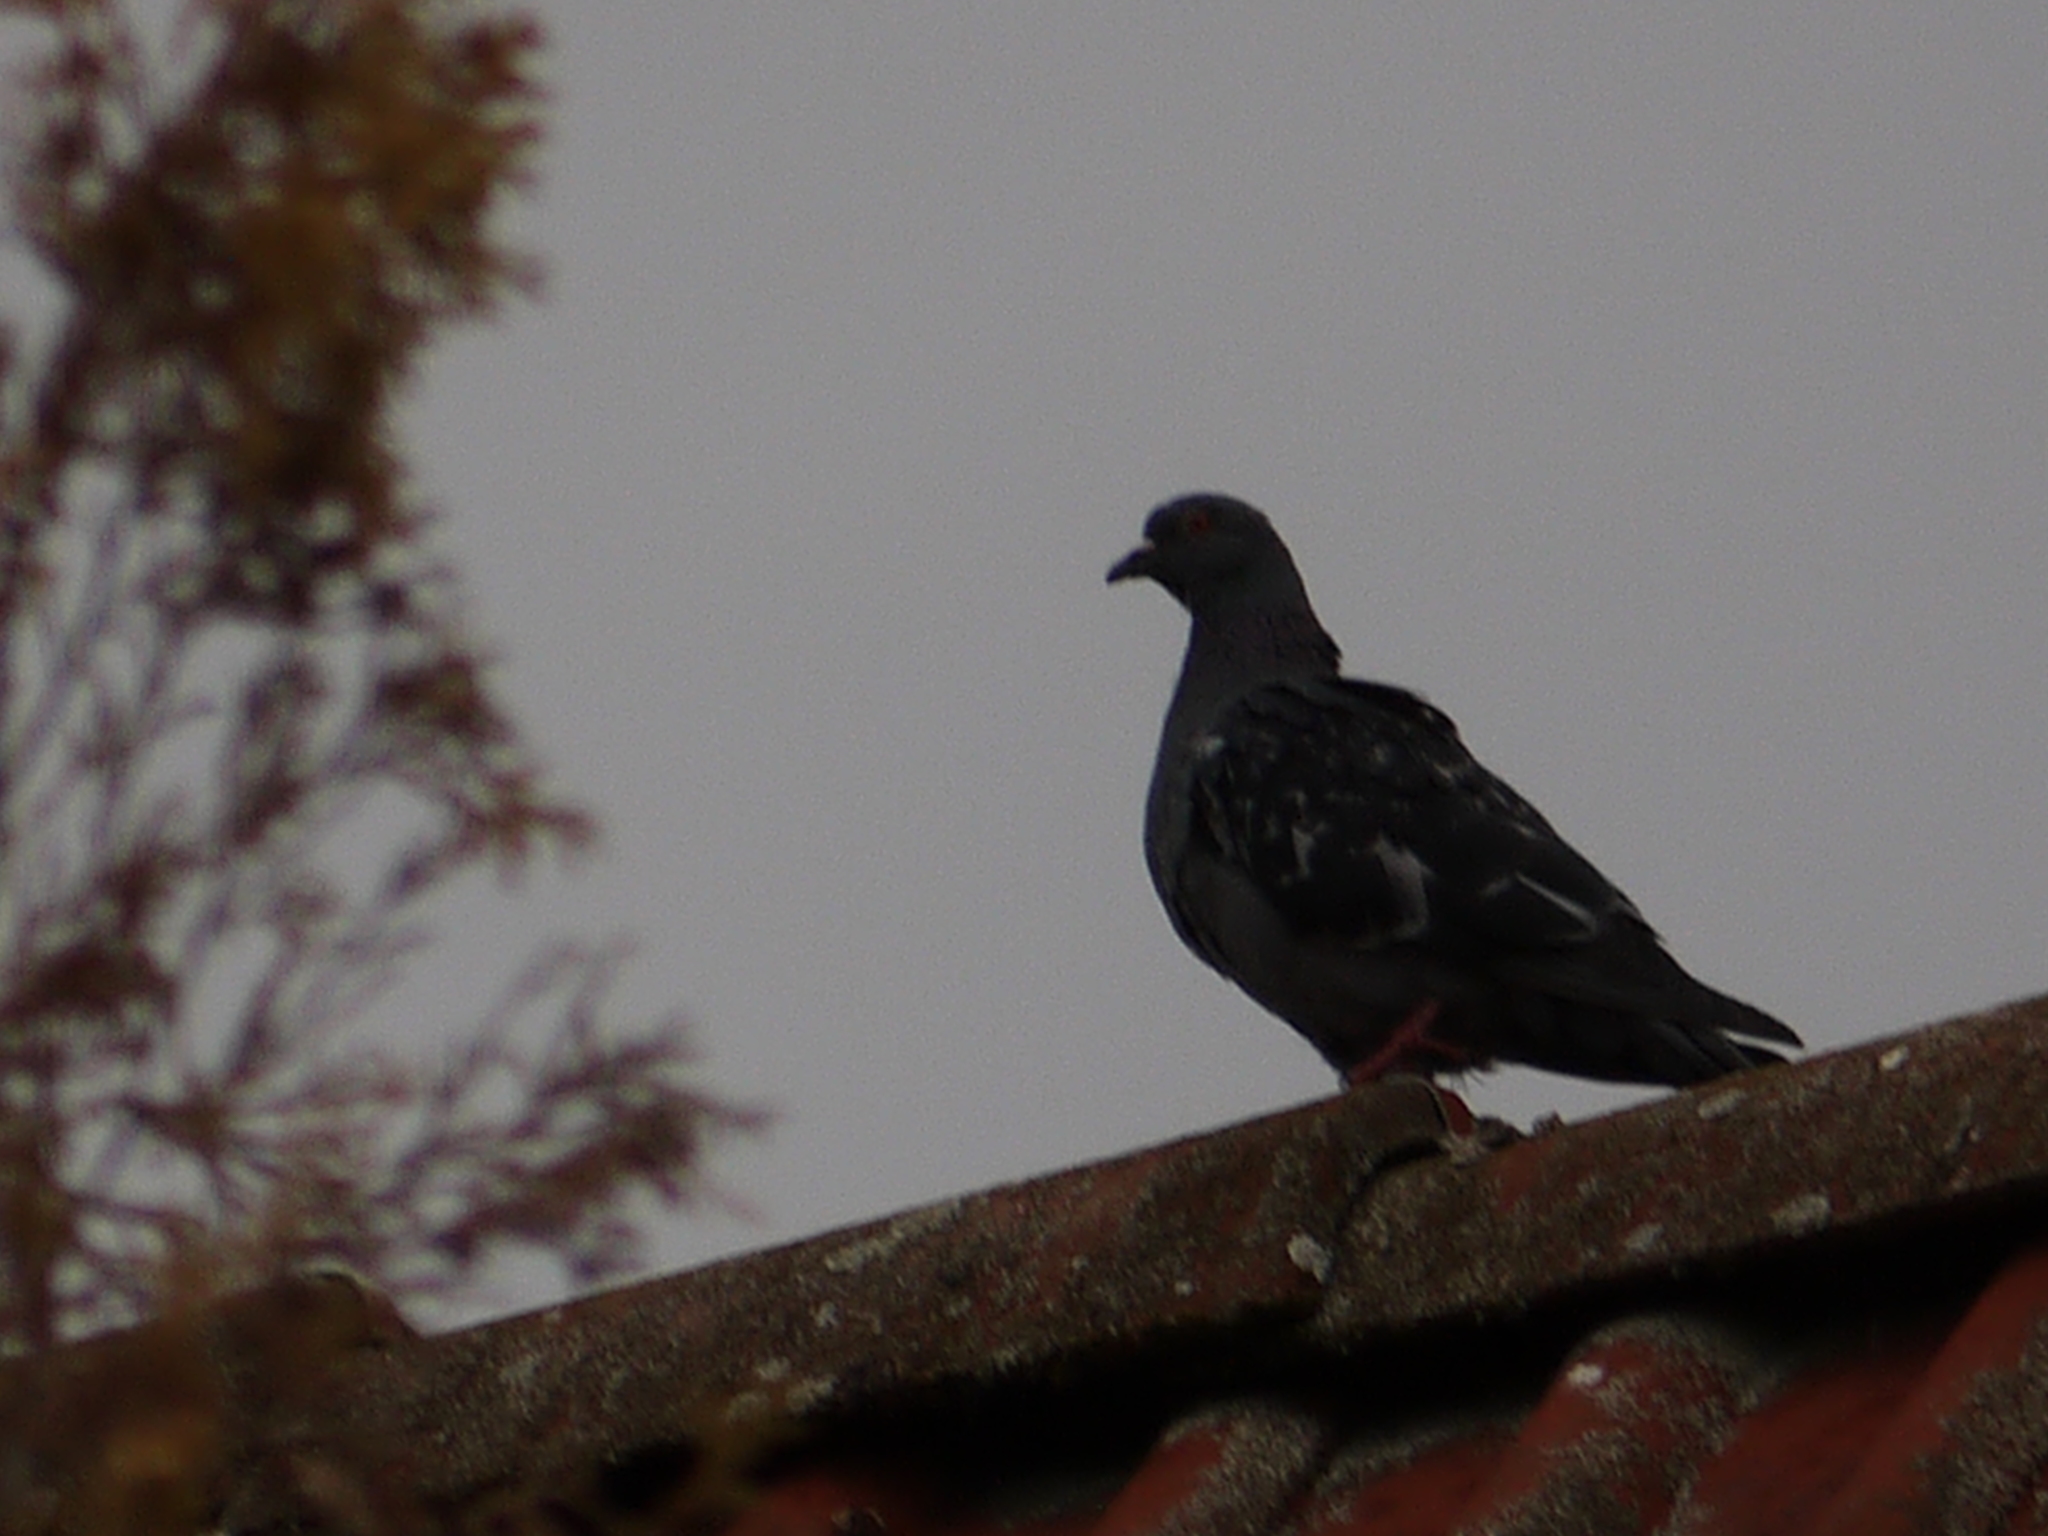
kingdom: Animalia
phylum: Chordata
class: Aves
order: Columbiformes
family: Columbidae
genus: Columba
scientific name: Columba livia
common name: Rock pigeon
